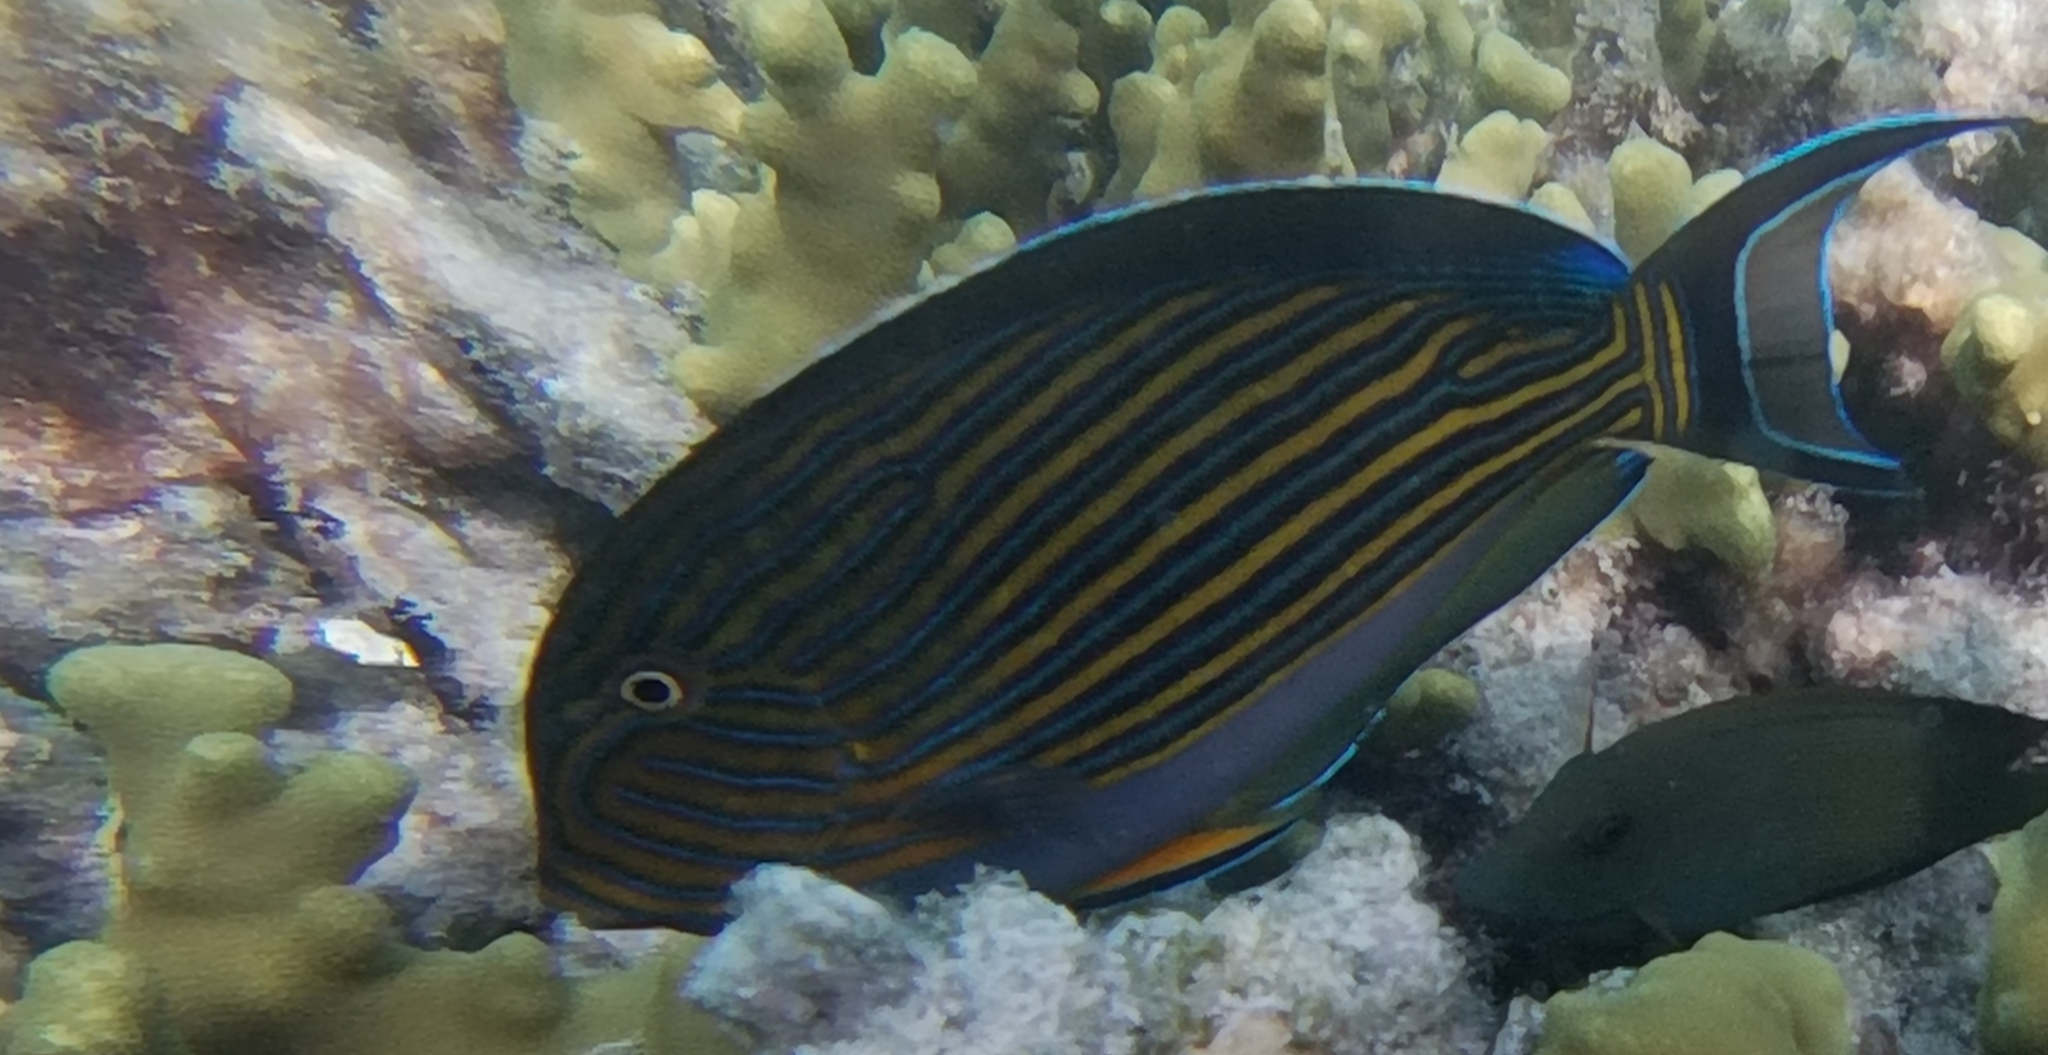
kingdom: Animalia
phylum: Chordata
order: Perciformes
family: Acanthuridae
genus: Acanthurus
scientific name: Acanthurus lineatus
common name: Striped surgeonfish
